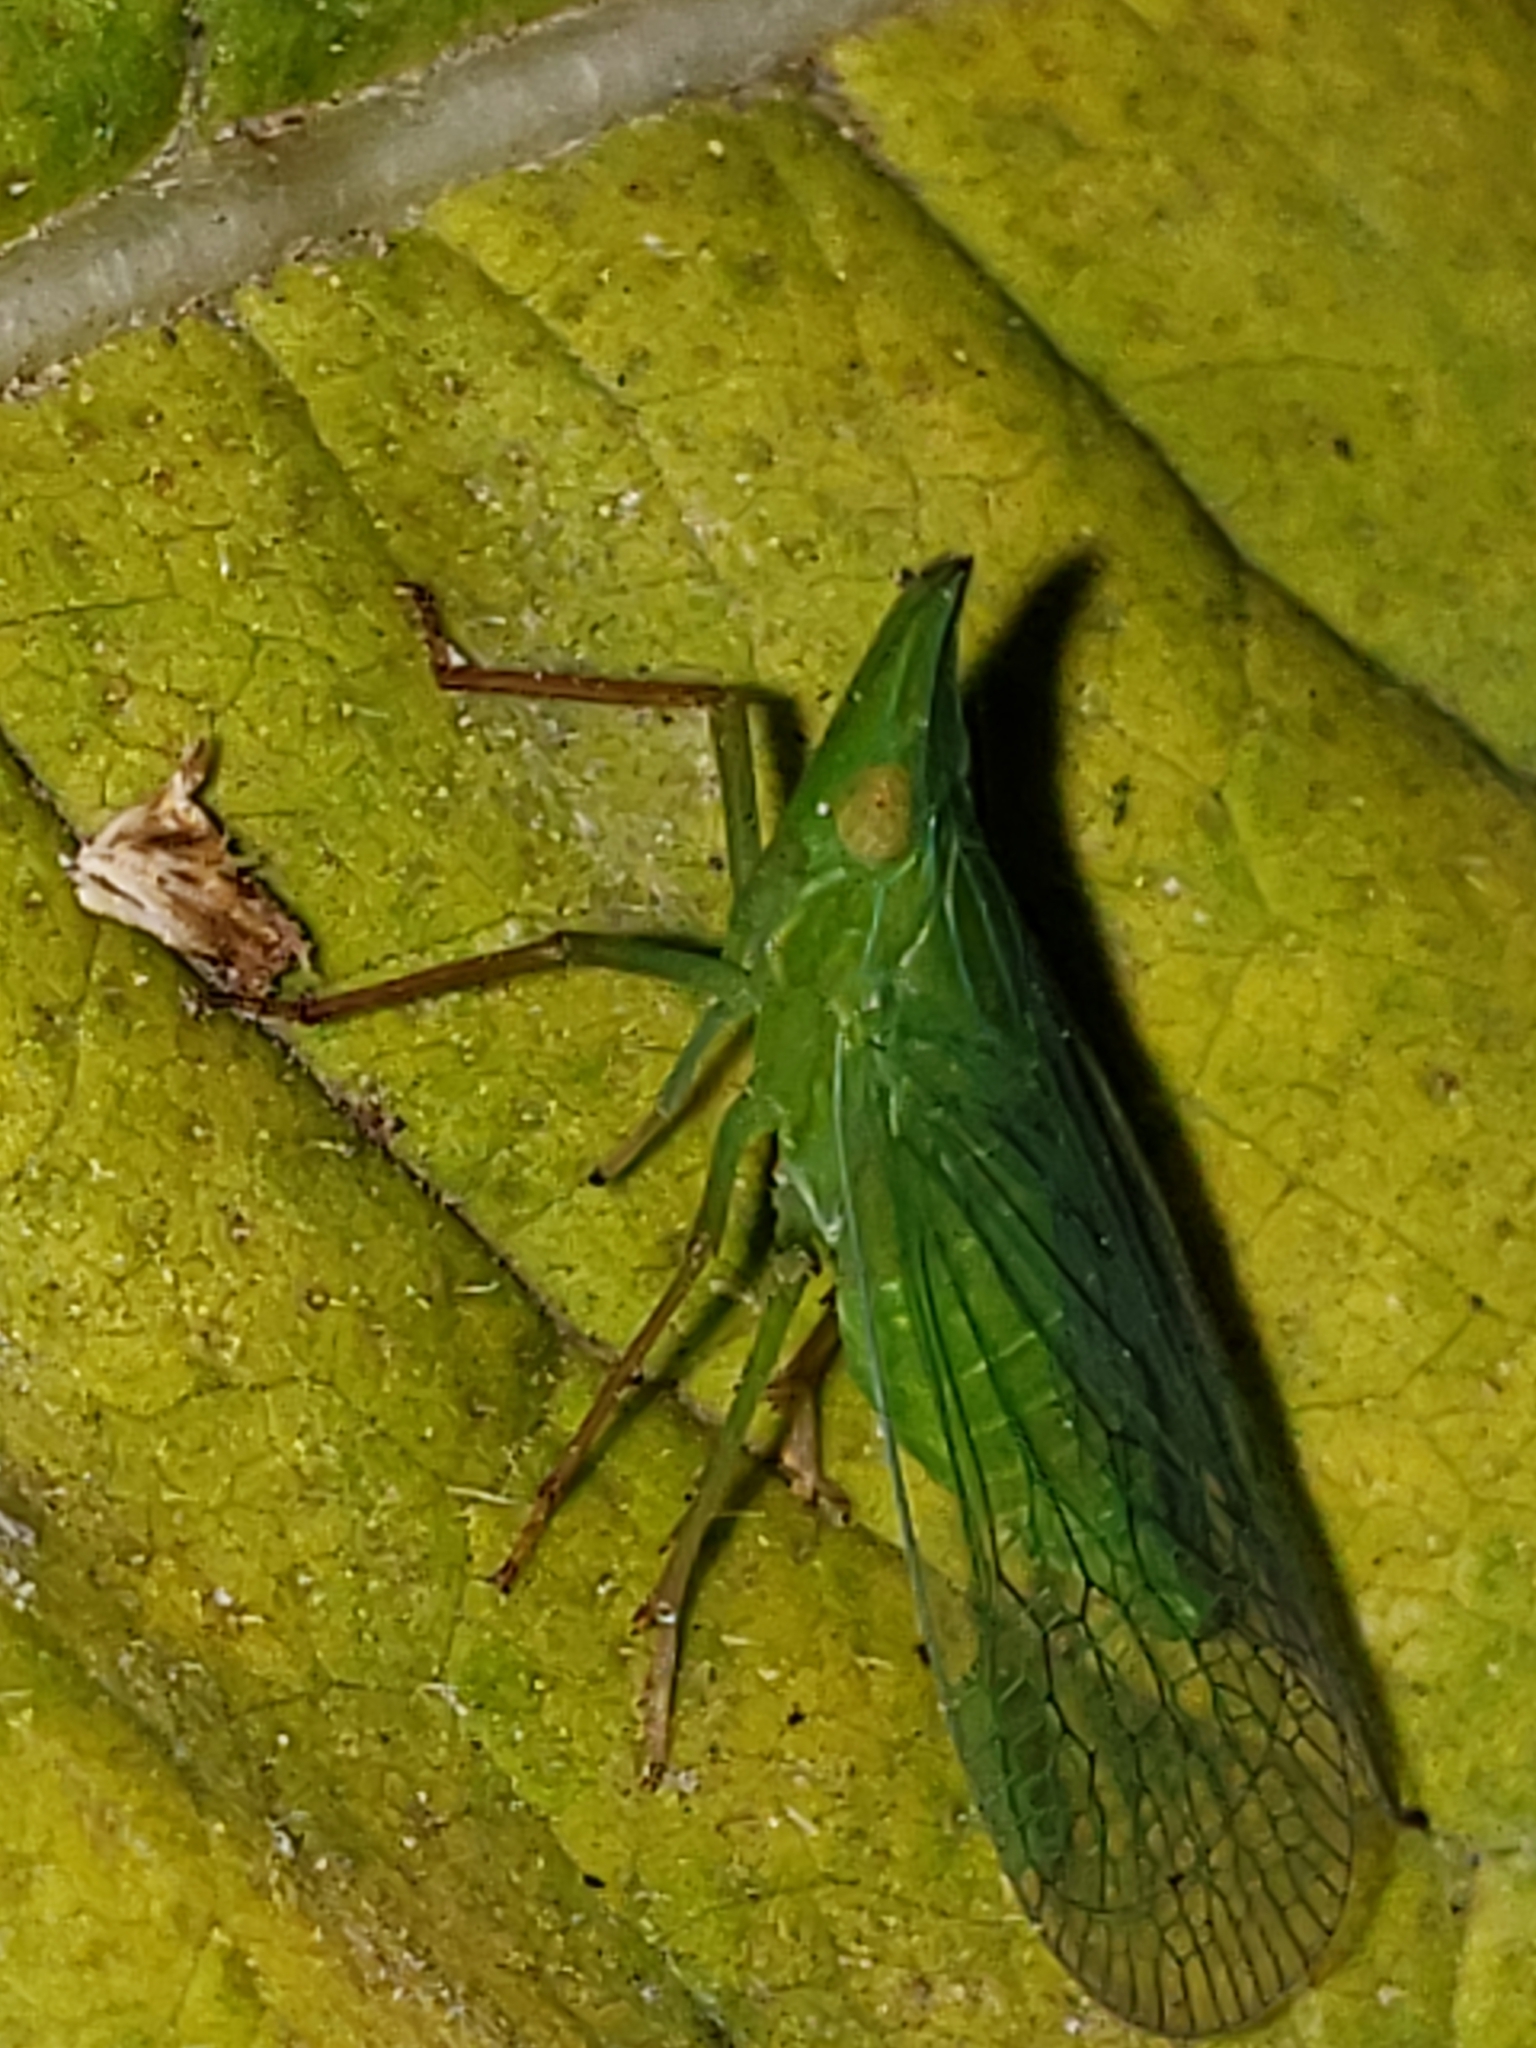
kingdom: Animalia
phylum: Arthropoda
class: Insecta
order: Hemiptera
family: Dictyopharidae
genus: Rhynchomitra
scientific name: Rhynchomitra microrhina
